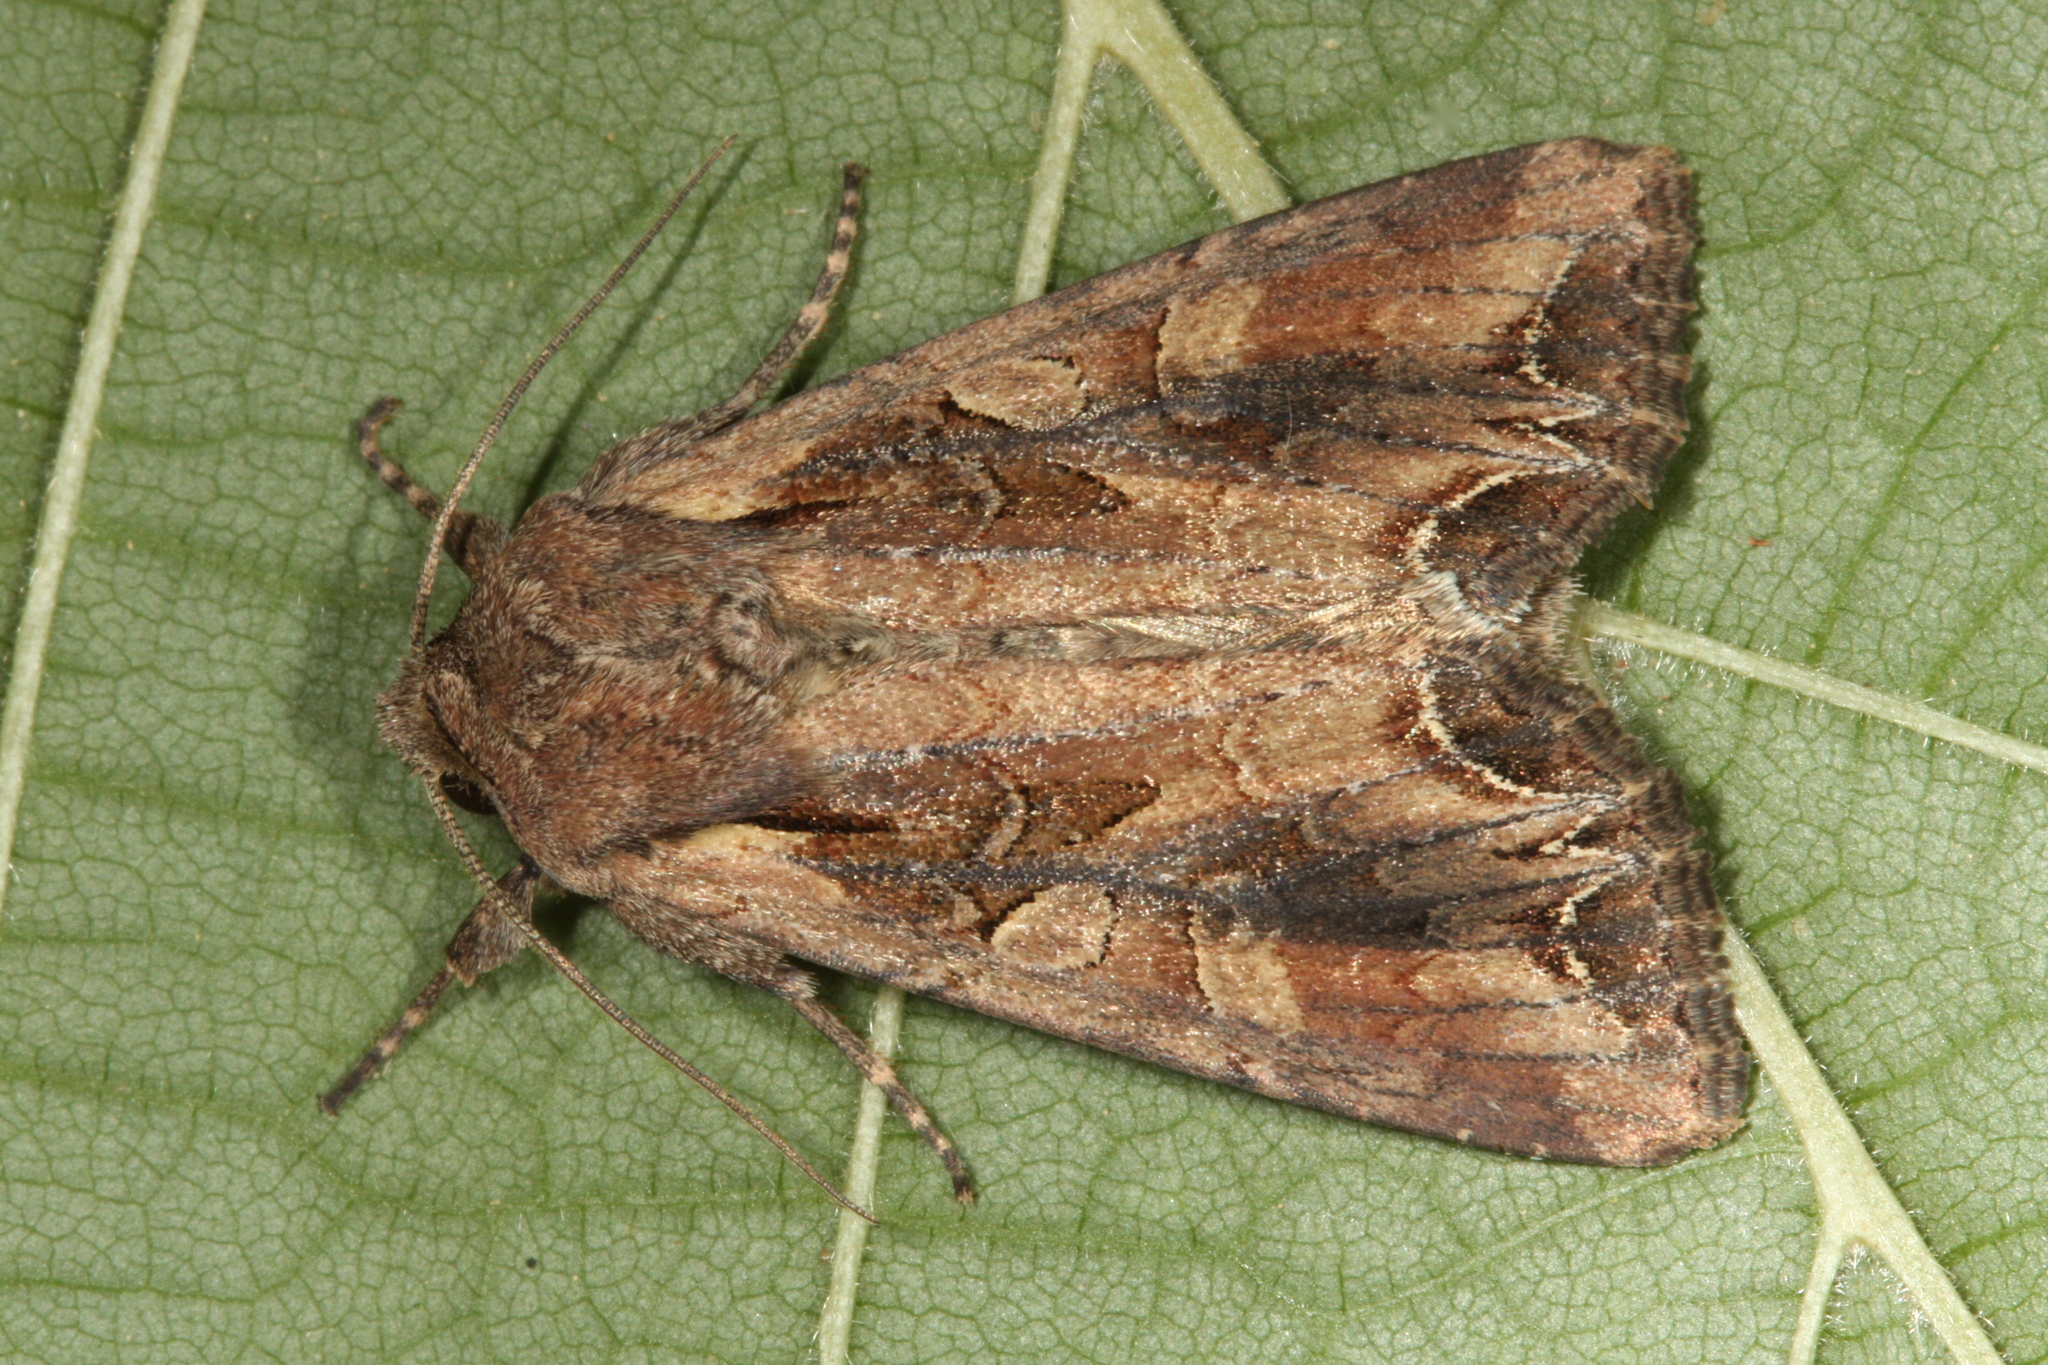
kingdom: Animalia
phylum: Arthropoda
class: Insecta
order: Lepidoptera
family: Noctuidae
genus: Lacanobia
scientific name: Lacanobia suasa
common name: Dog's tooth
